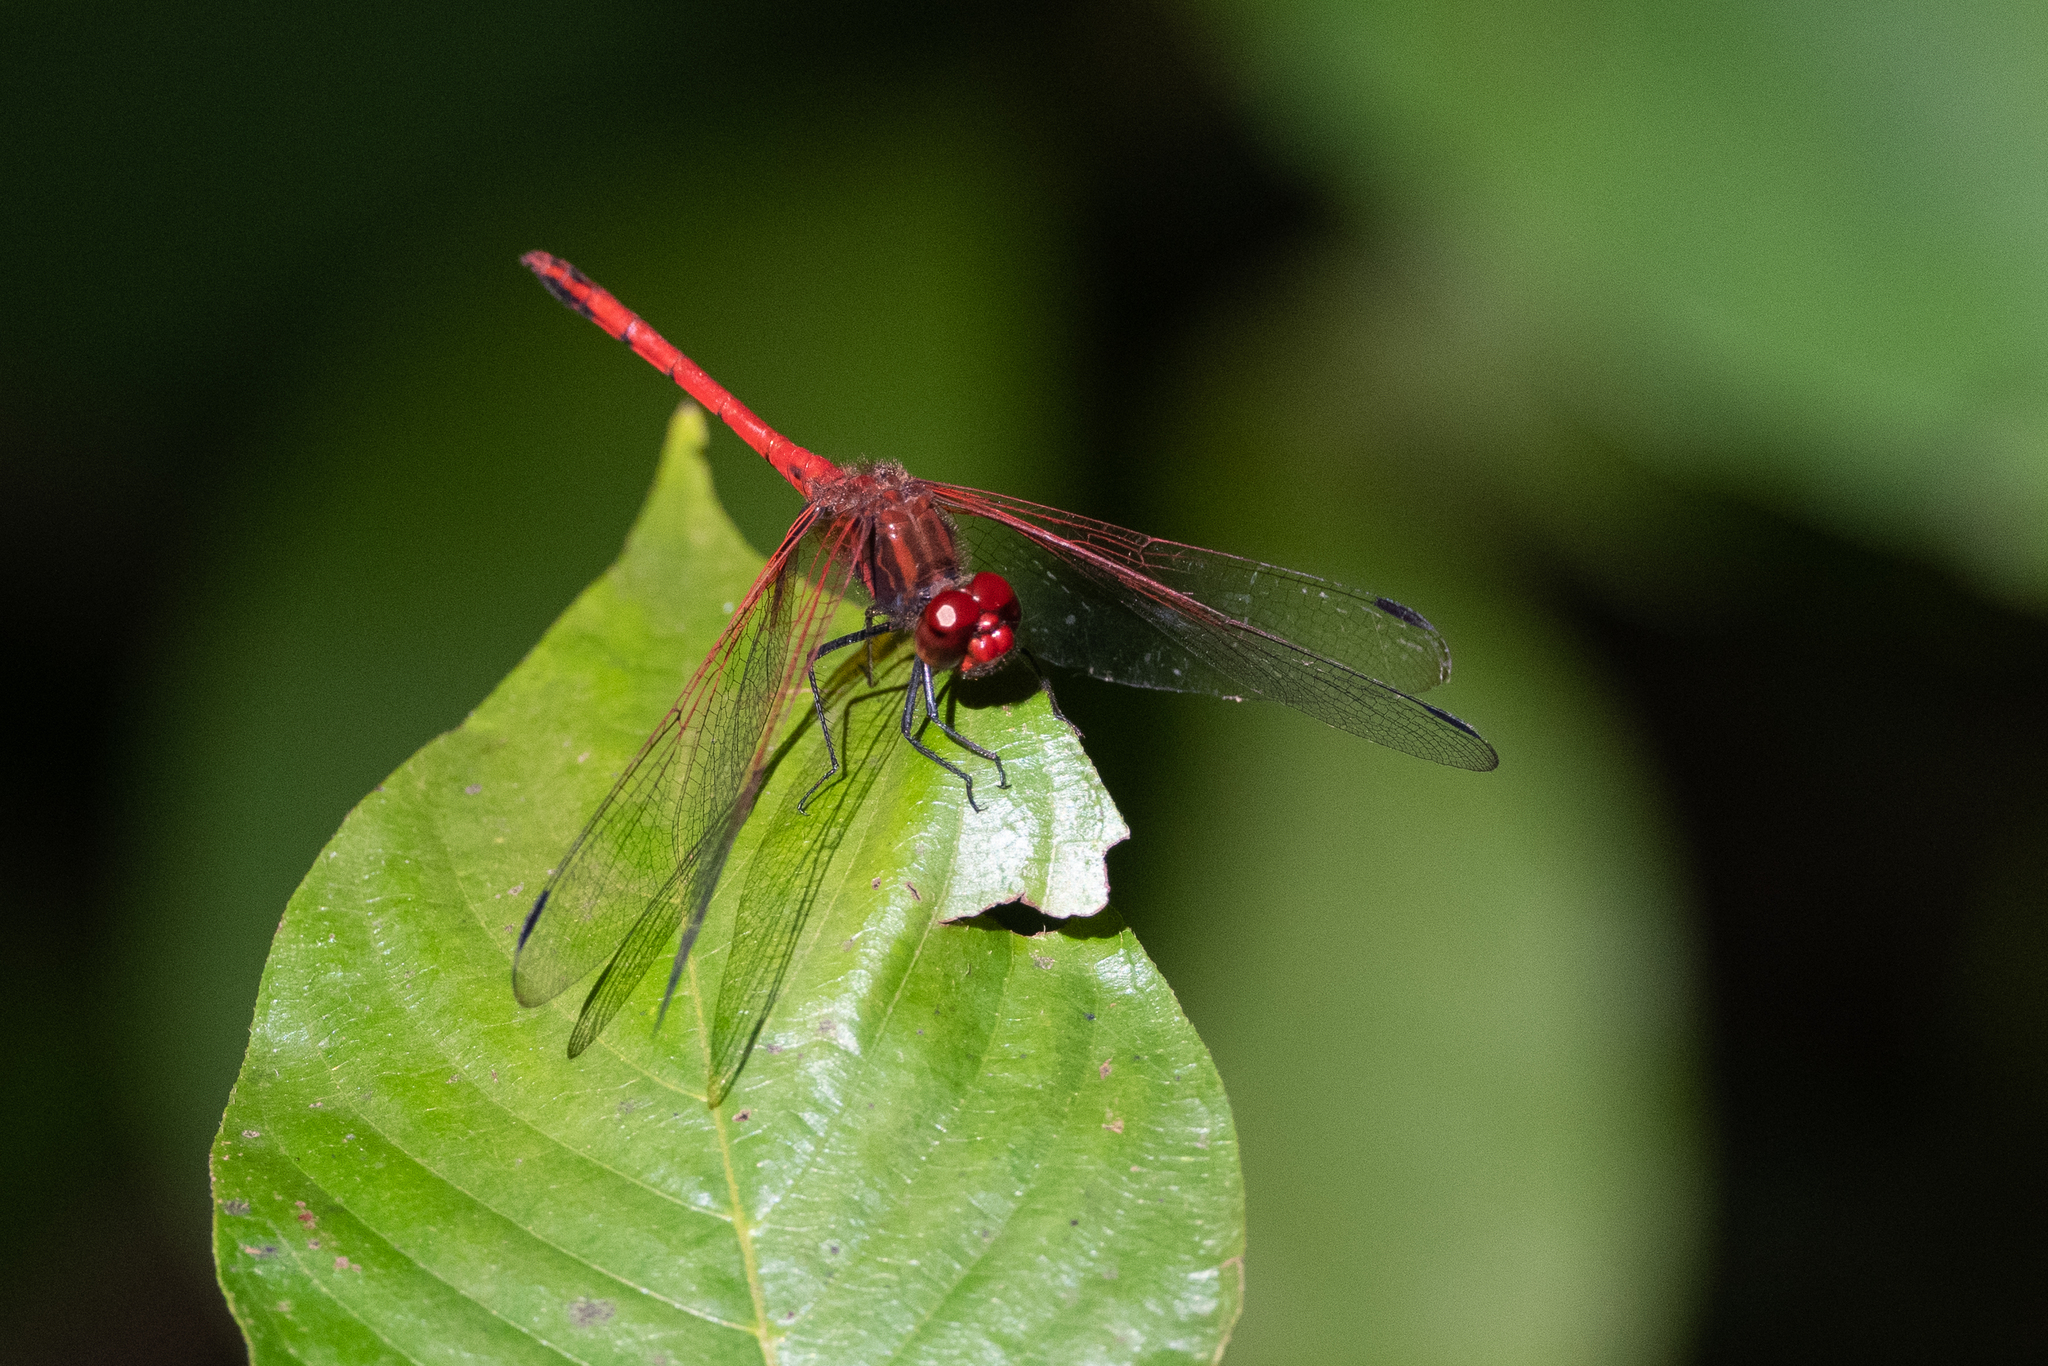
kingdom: Animalia
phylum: Arthropoda
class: Insecta
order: Odonata
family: Libellulidae
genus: Dythemis
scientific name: Dythemis rufinervis
